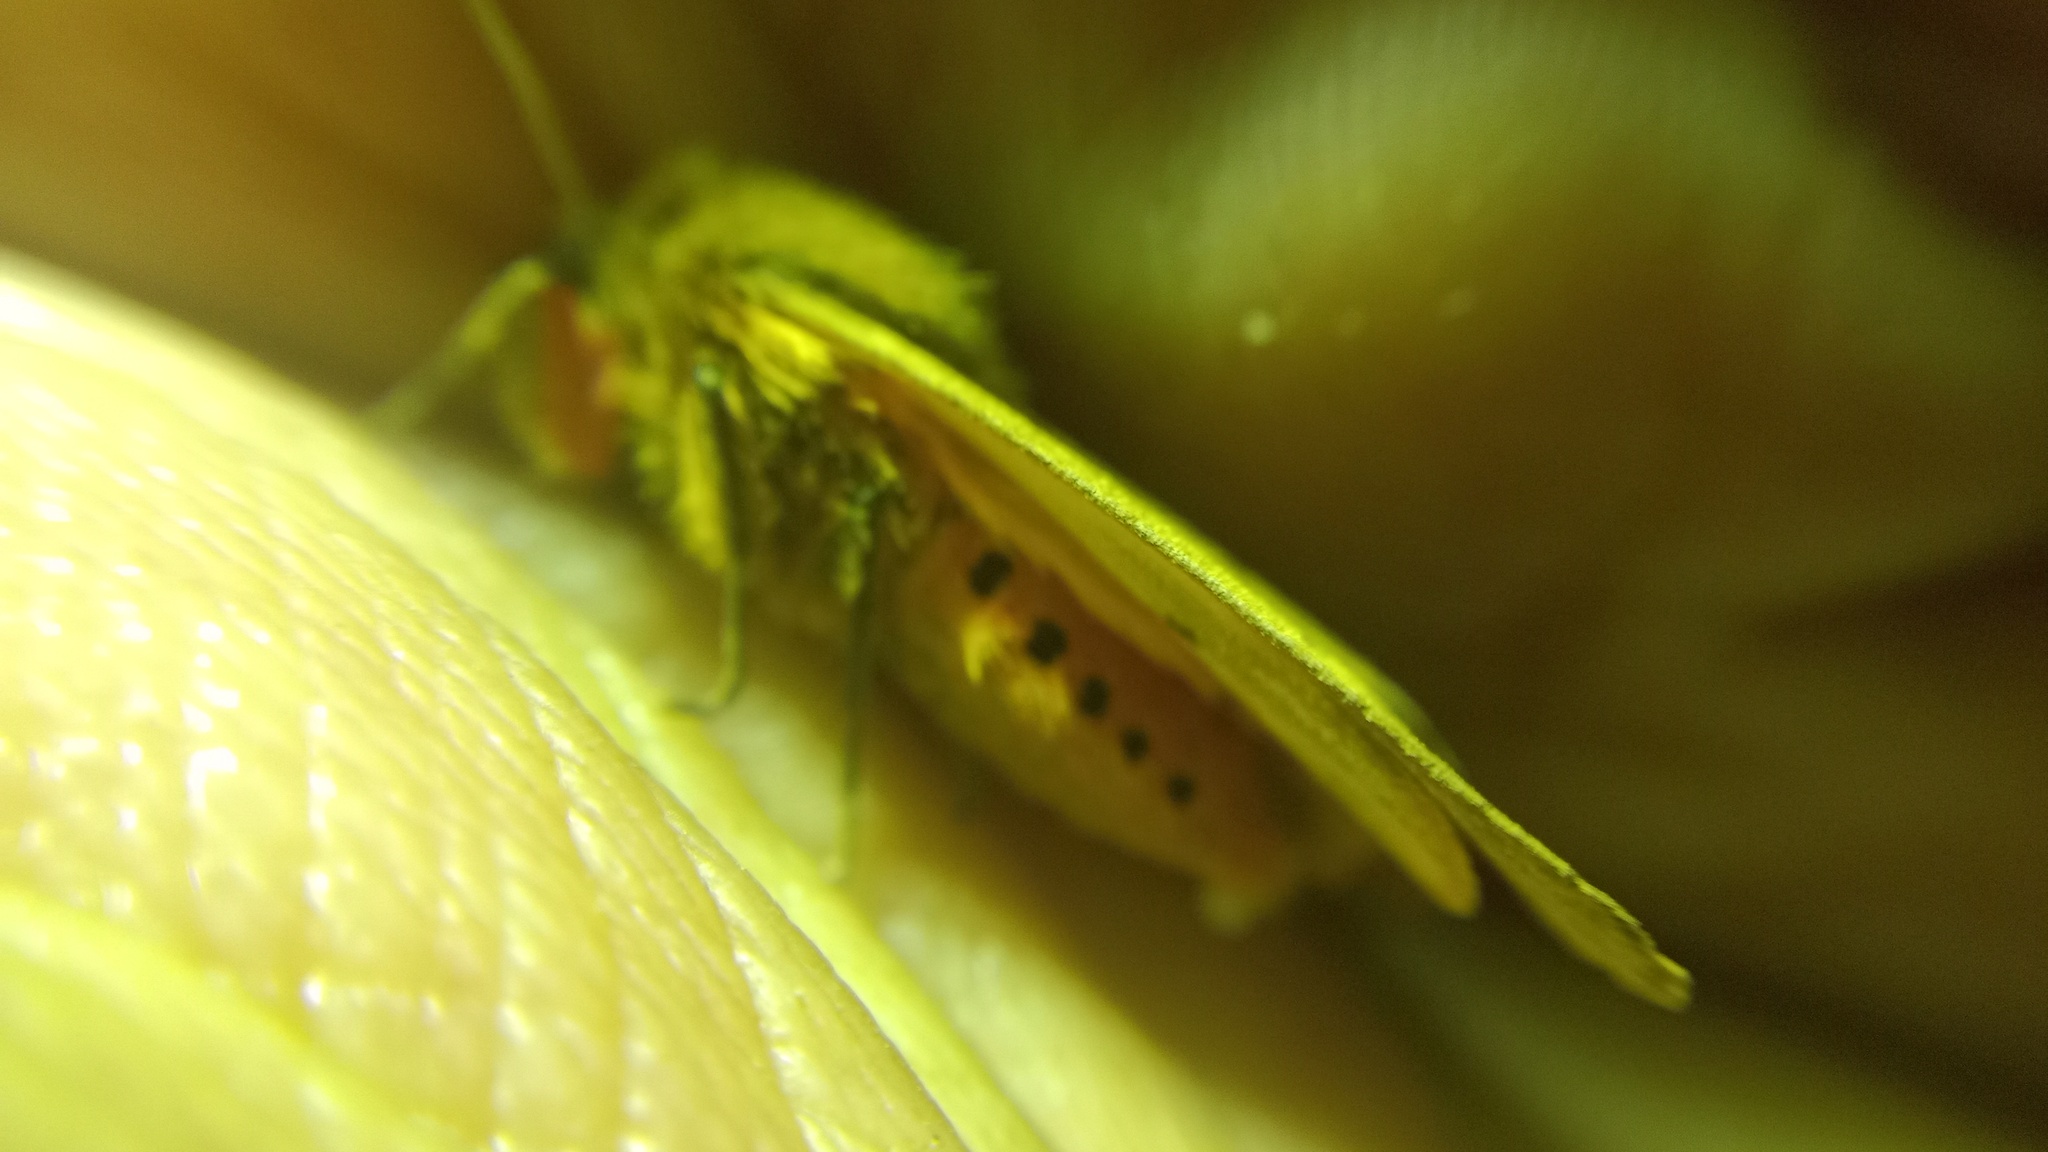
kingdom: Animalia
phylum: Arthropoda
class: Insecta
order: Lepidoptera
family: Erebidae
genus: Phragmatobia
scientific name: Phragmatobia fuliginosa
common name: Ruby tiger
